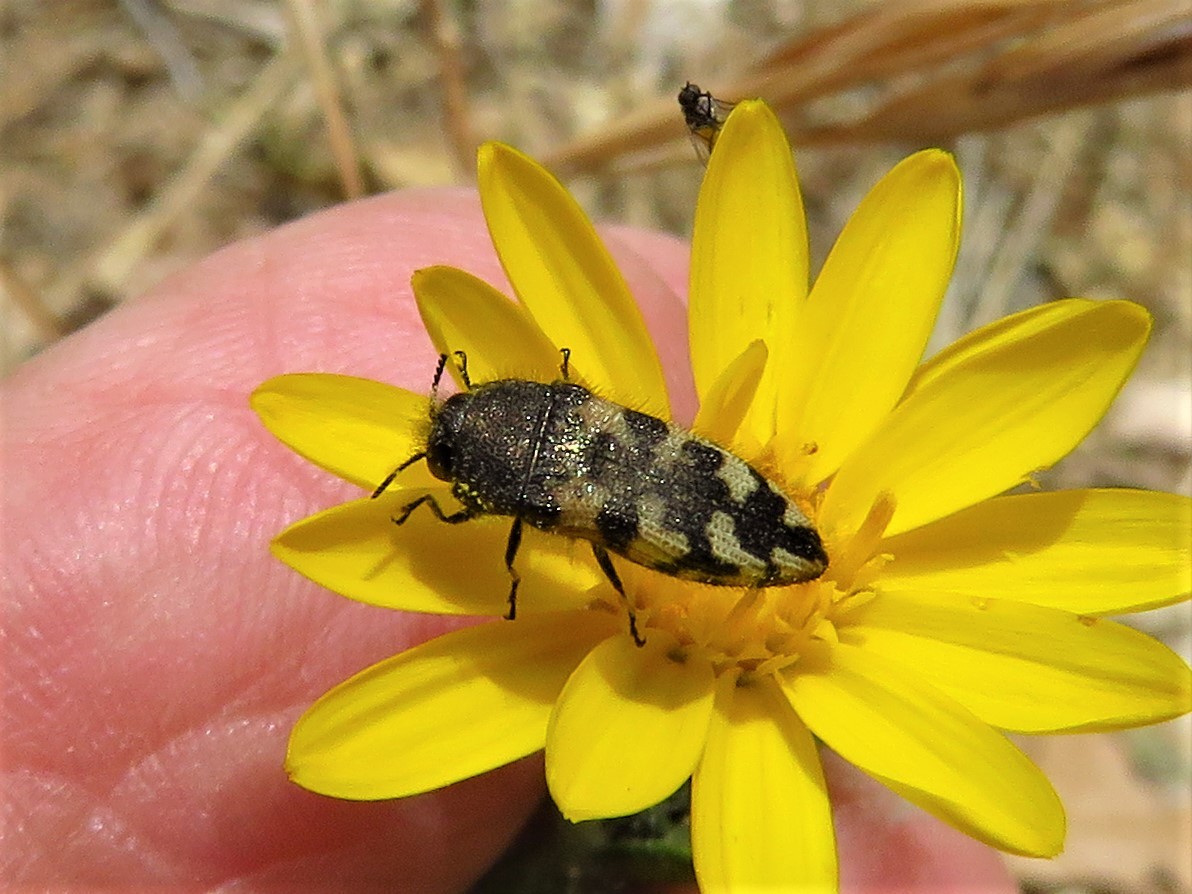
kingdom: Animalia
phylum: Arthropoda
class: Insecta
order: Coleoptera
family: Buprestidae
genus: Acmaeodera
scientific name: Acmaeodera diffusa
